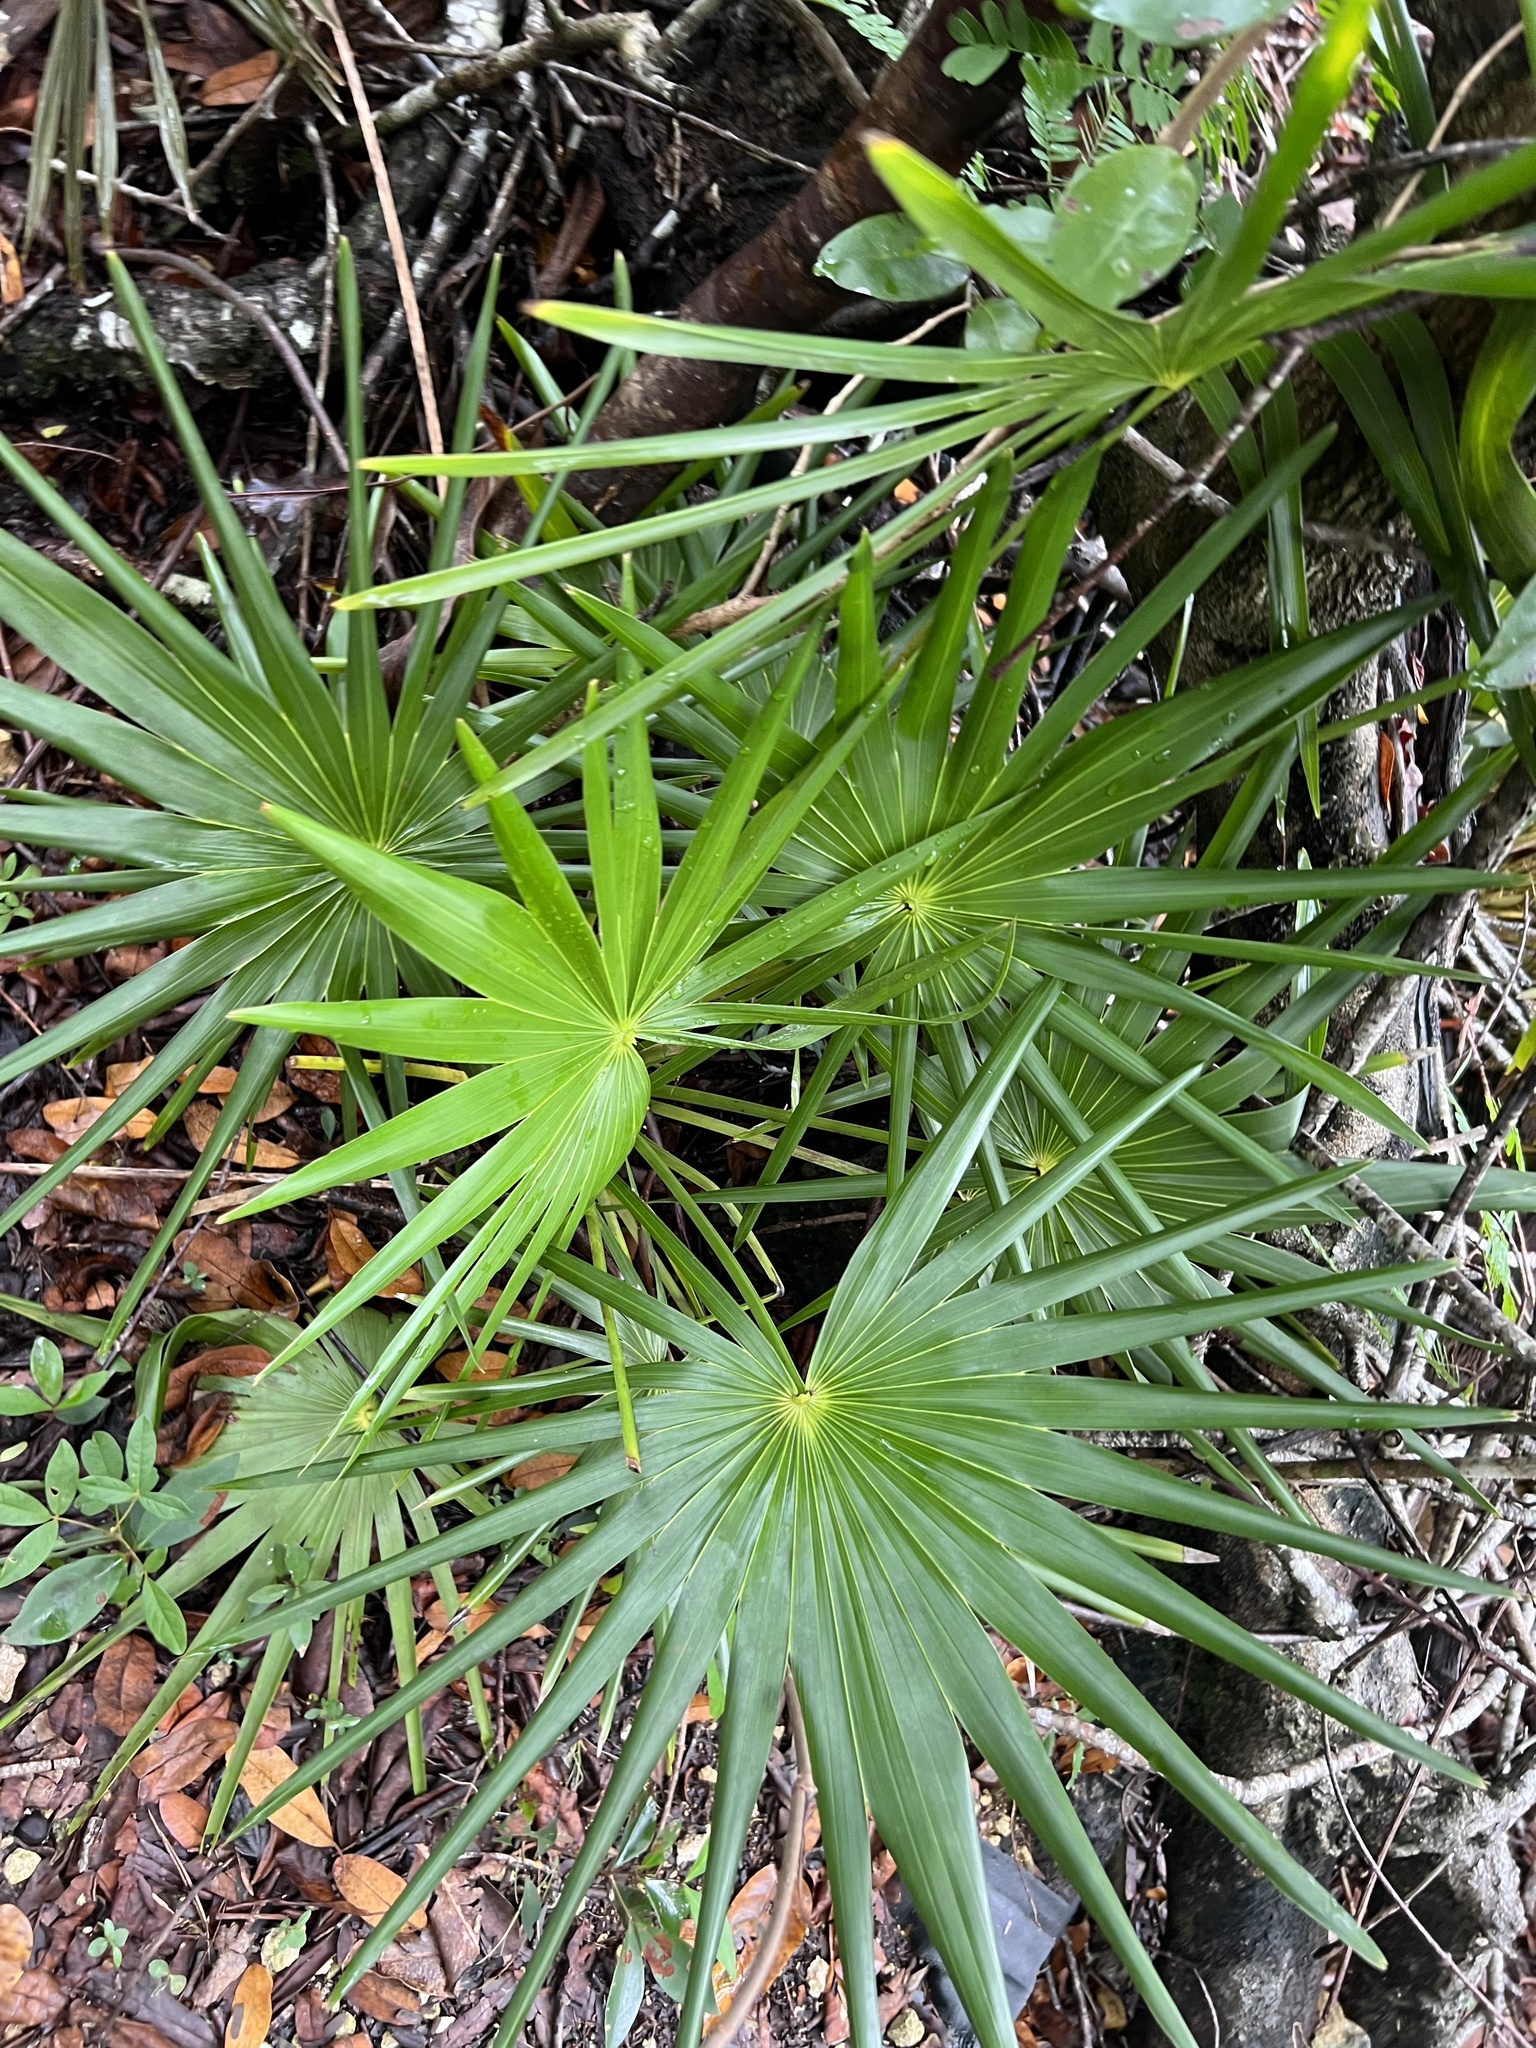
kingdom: Plantae
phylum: Tracheophyta
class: Liliopsida
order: Arecales
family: Arecaceae
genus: Thrinax
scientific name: Thrinax radiata
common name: Florida thatch
